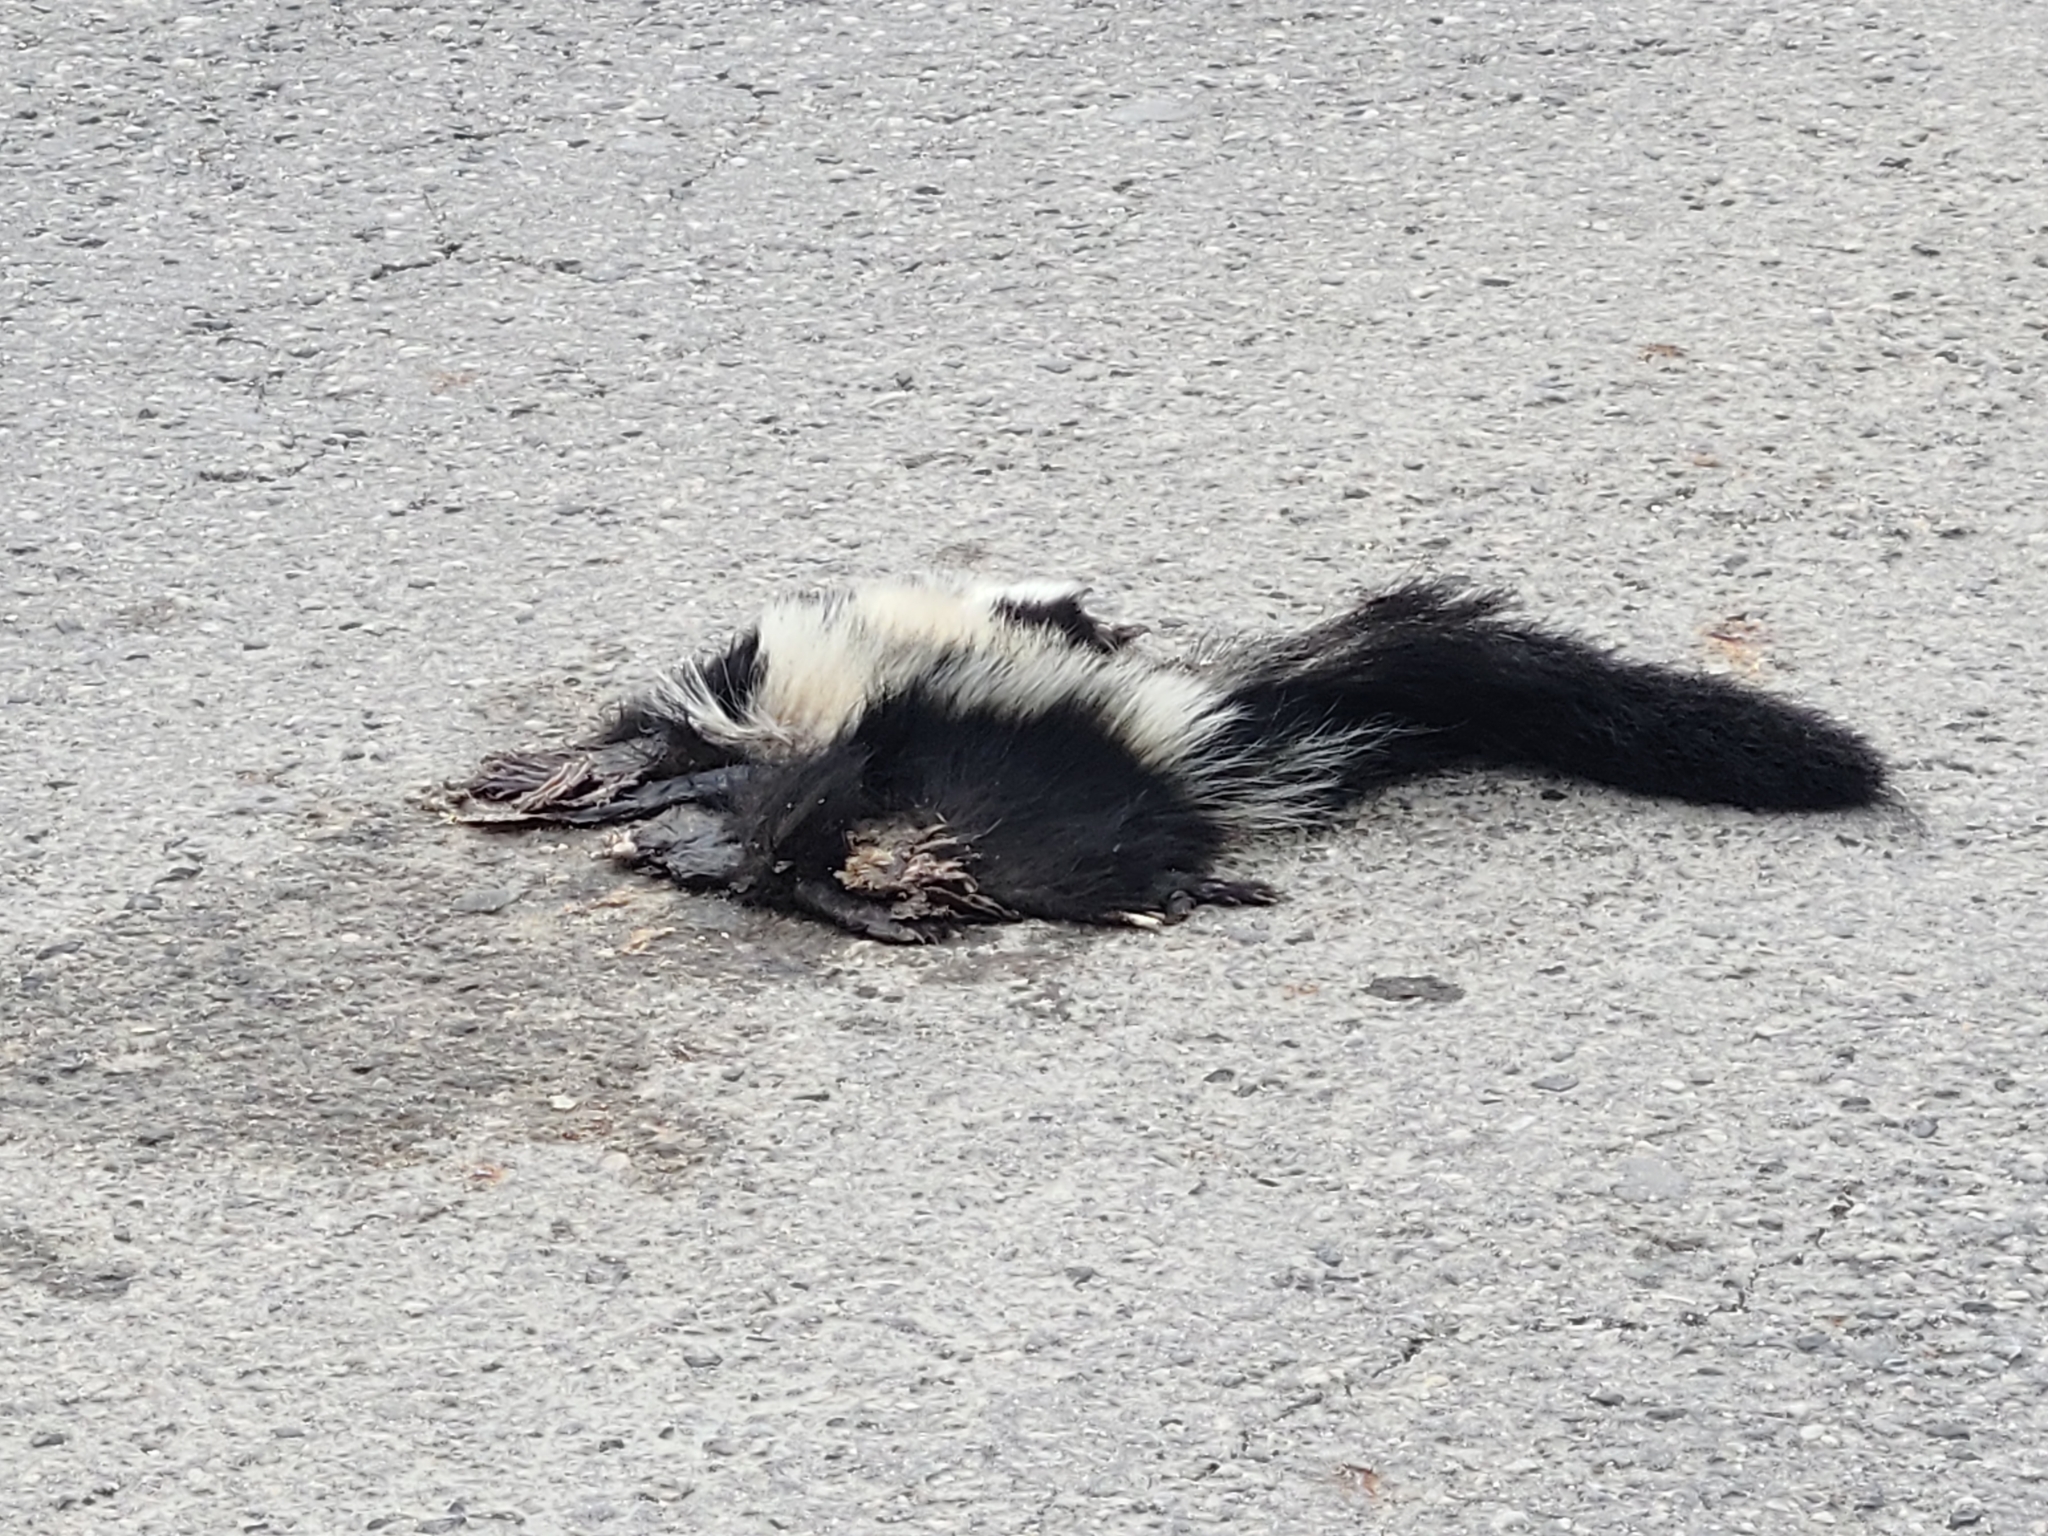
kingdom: Animalia
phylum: Chordata
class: Mammalia
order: Carnivora
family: Mephitidae
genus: Mephitis
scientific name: Mephitis mephitis
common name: Striped skunk
